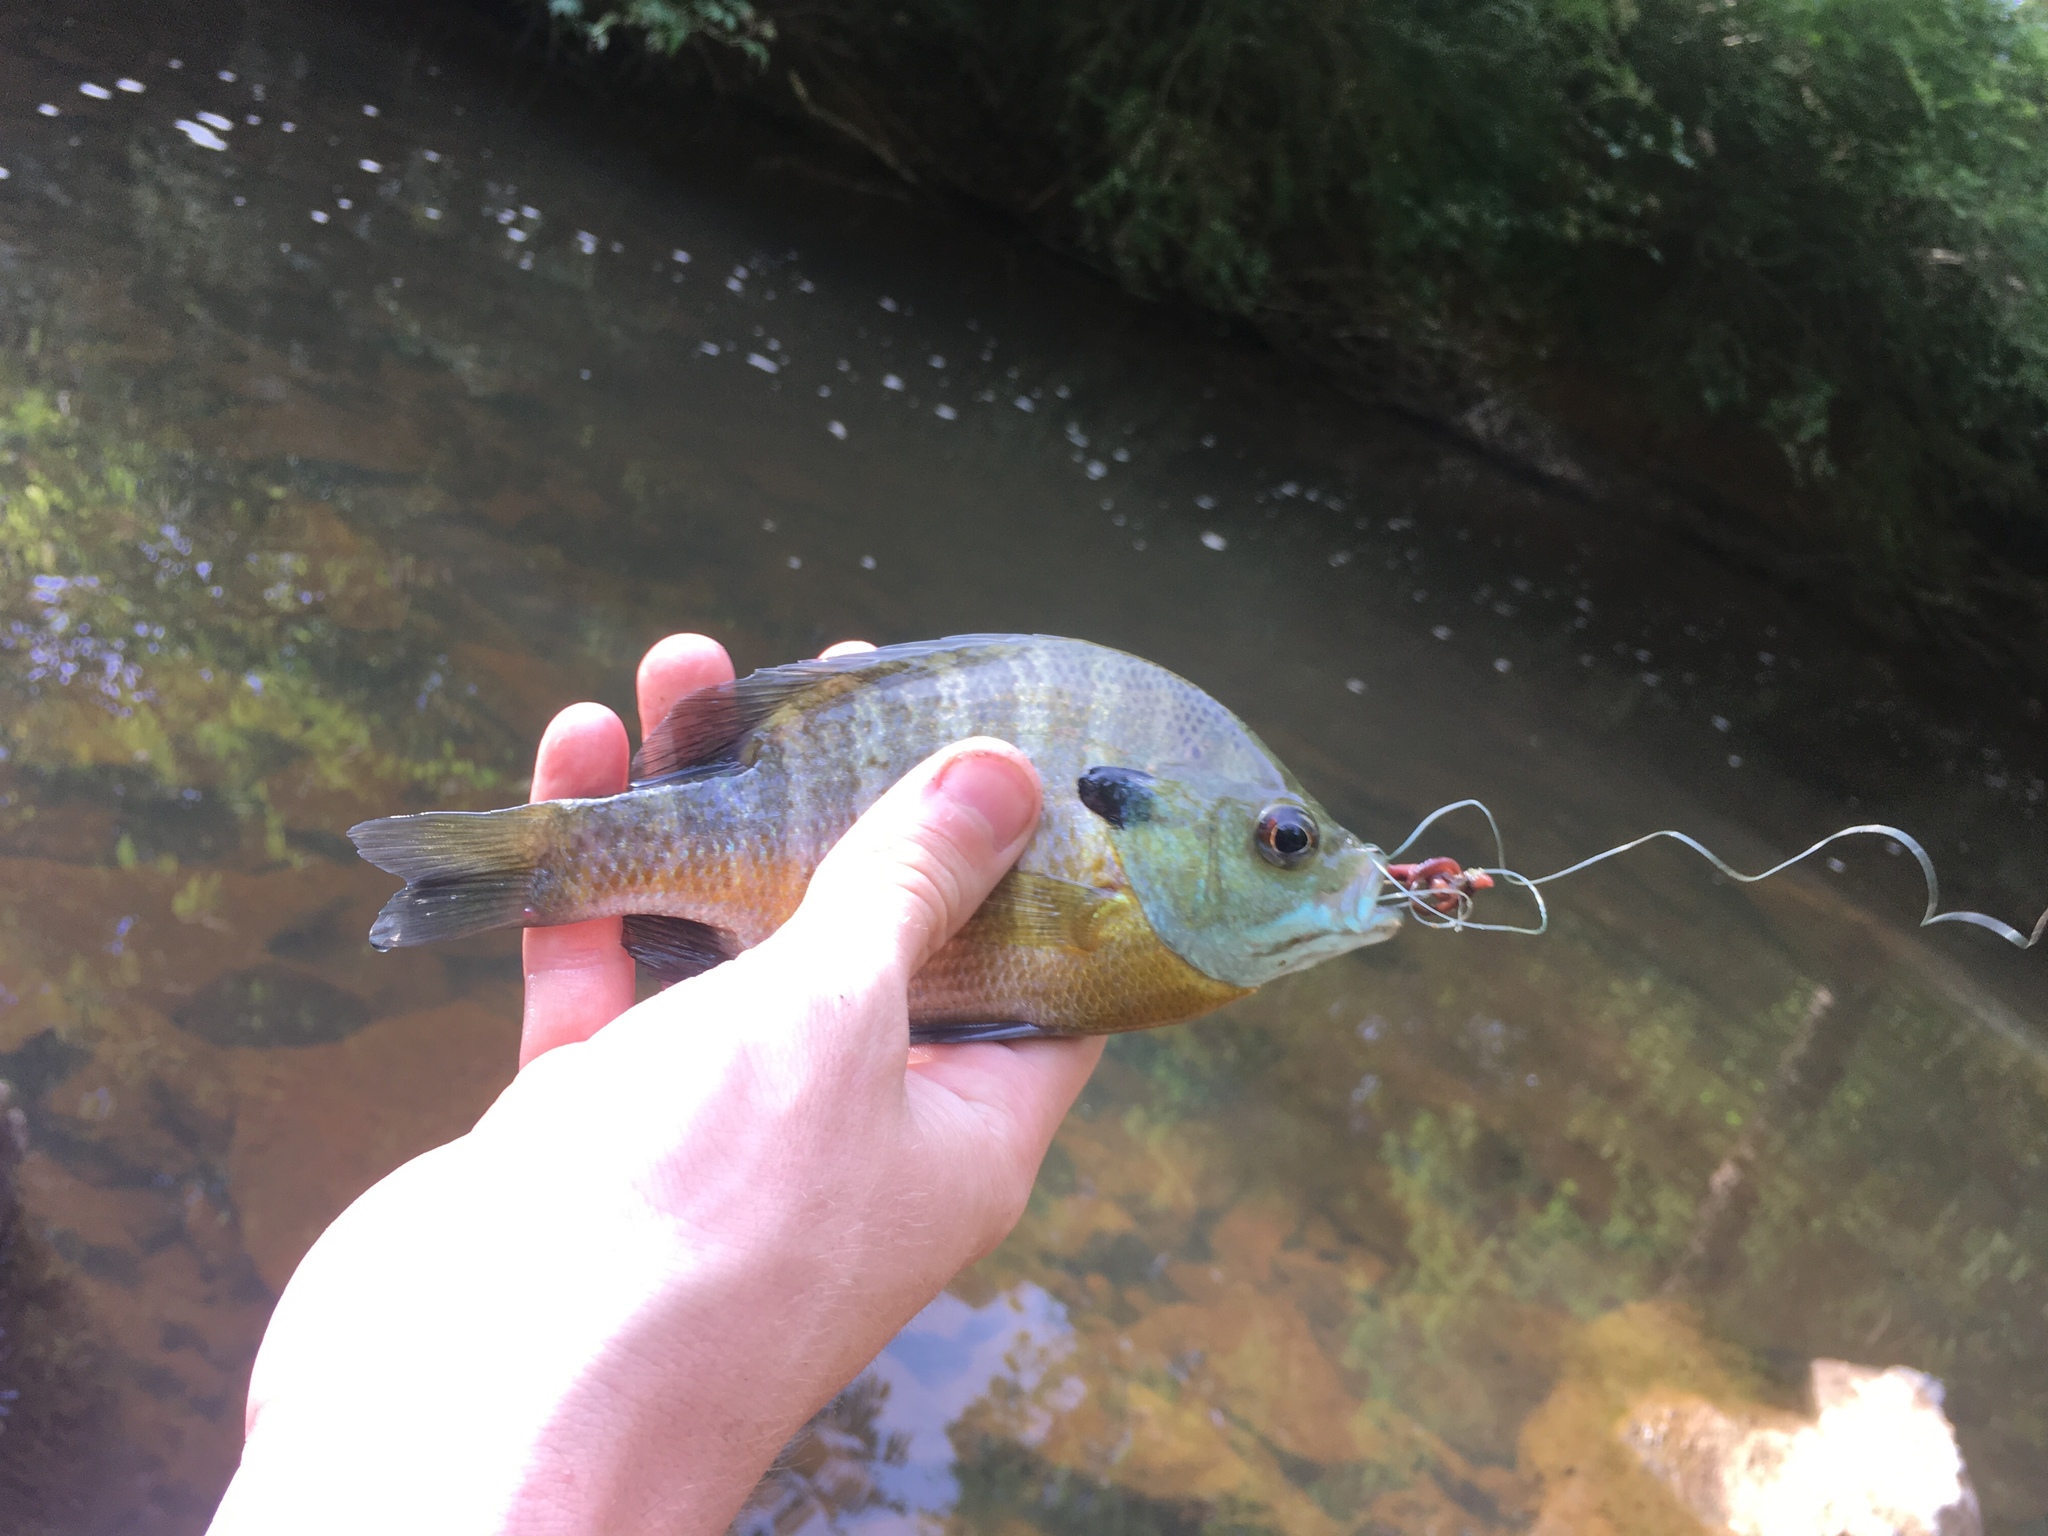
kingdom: Animalia
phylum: Chordata
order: Perciformes
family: Centrarchidae
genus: Lepomis
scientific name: Lepomis macrochirus
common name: Bluegill
